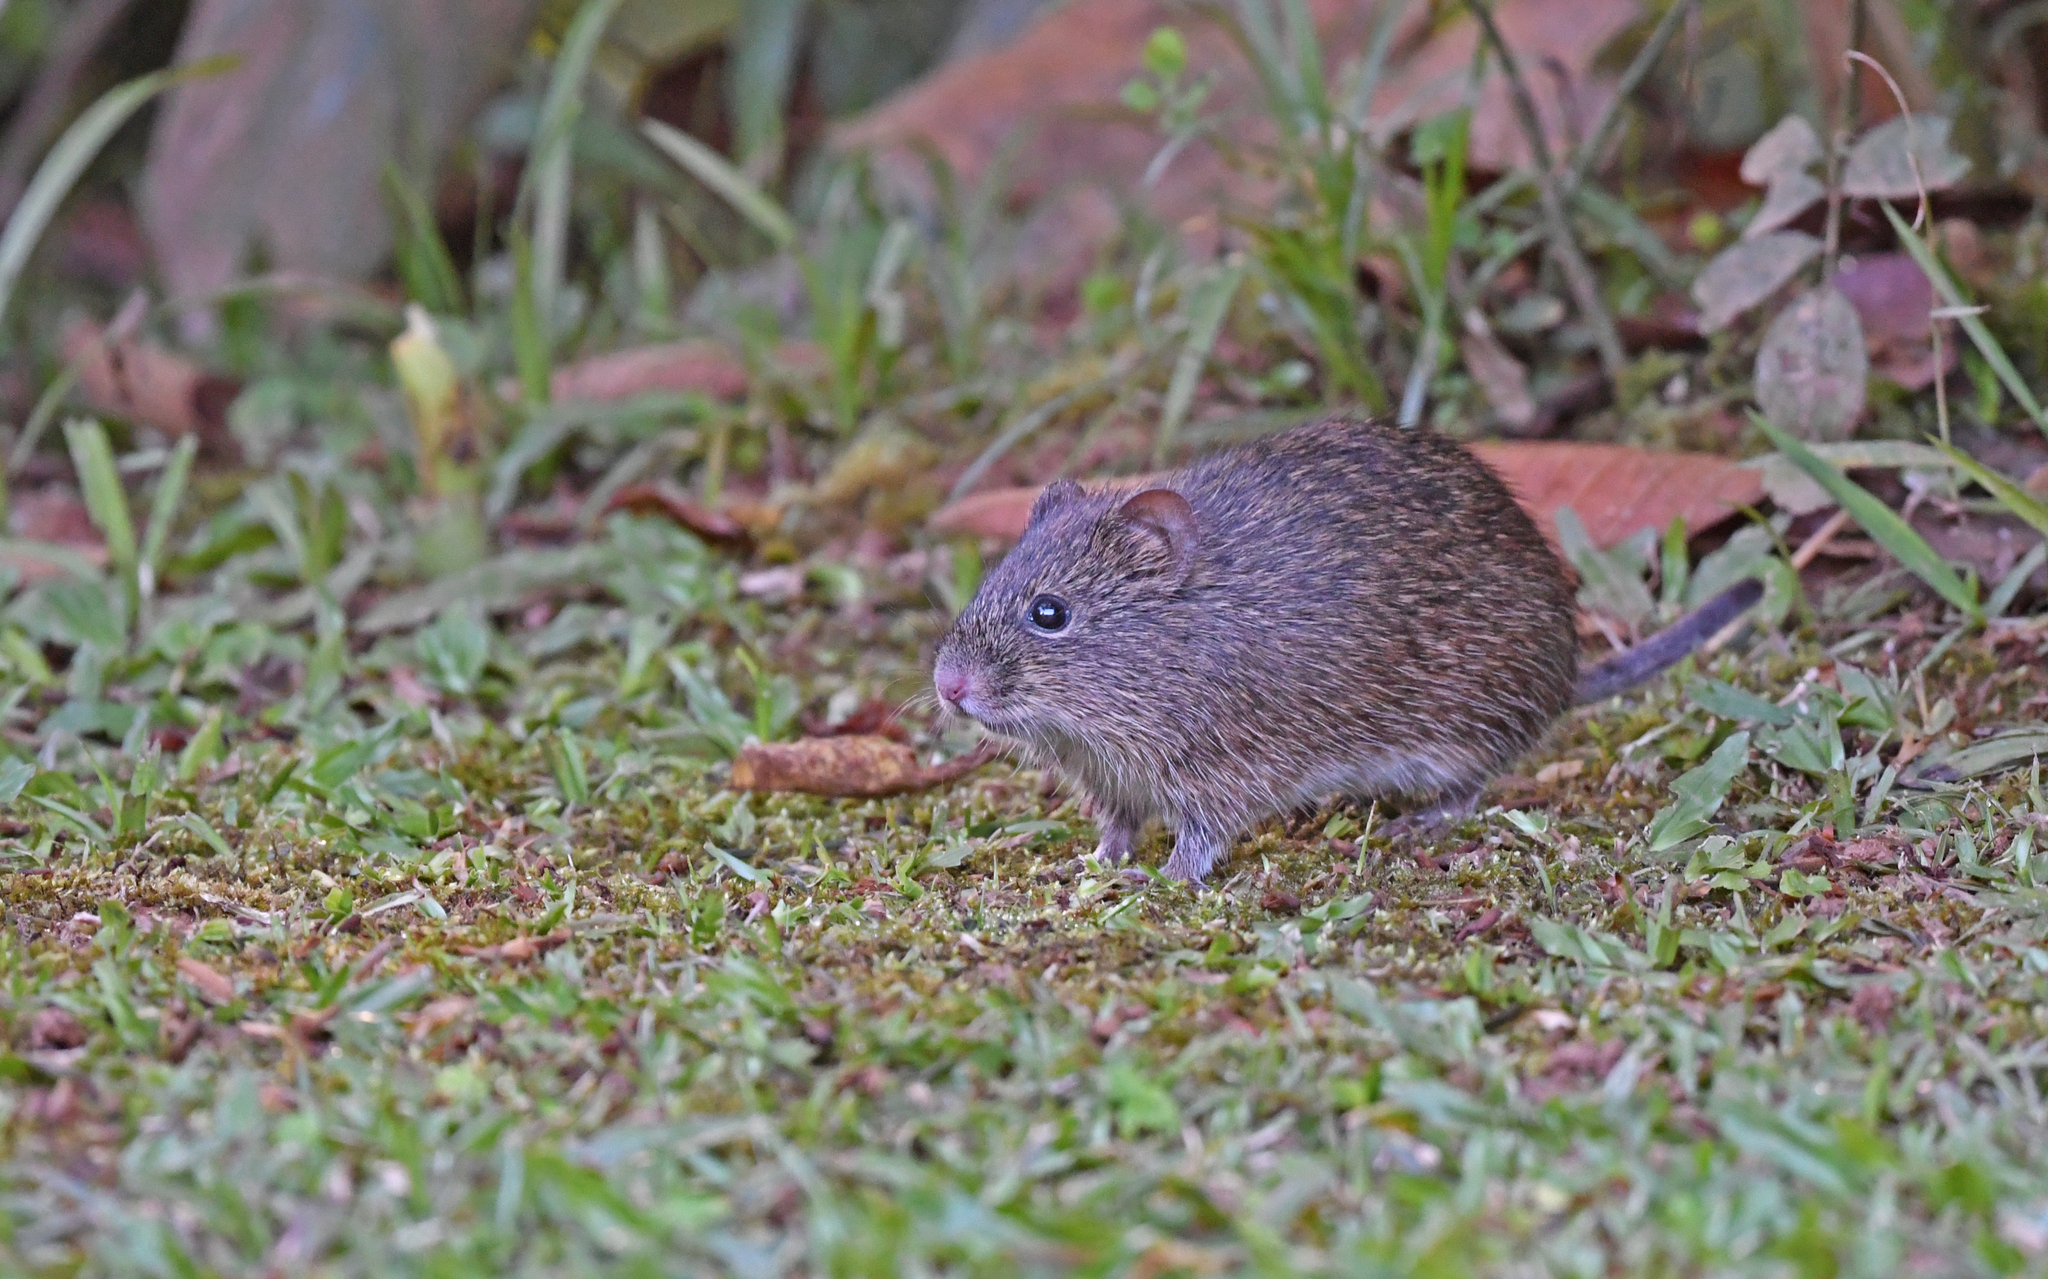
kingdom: Animalia
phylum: Chordata
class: Mammalia
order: Rodentia
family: Cricetidae
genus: Sigmodon
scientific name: Sigmodon hirsutus
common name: Southern cotton rat
